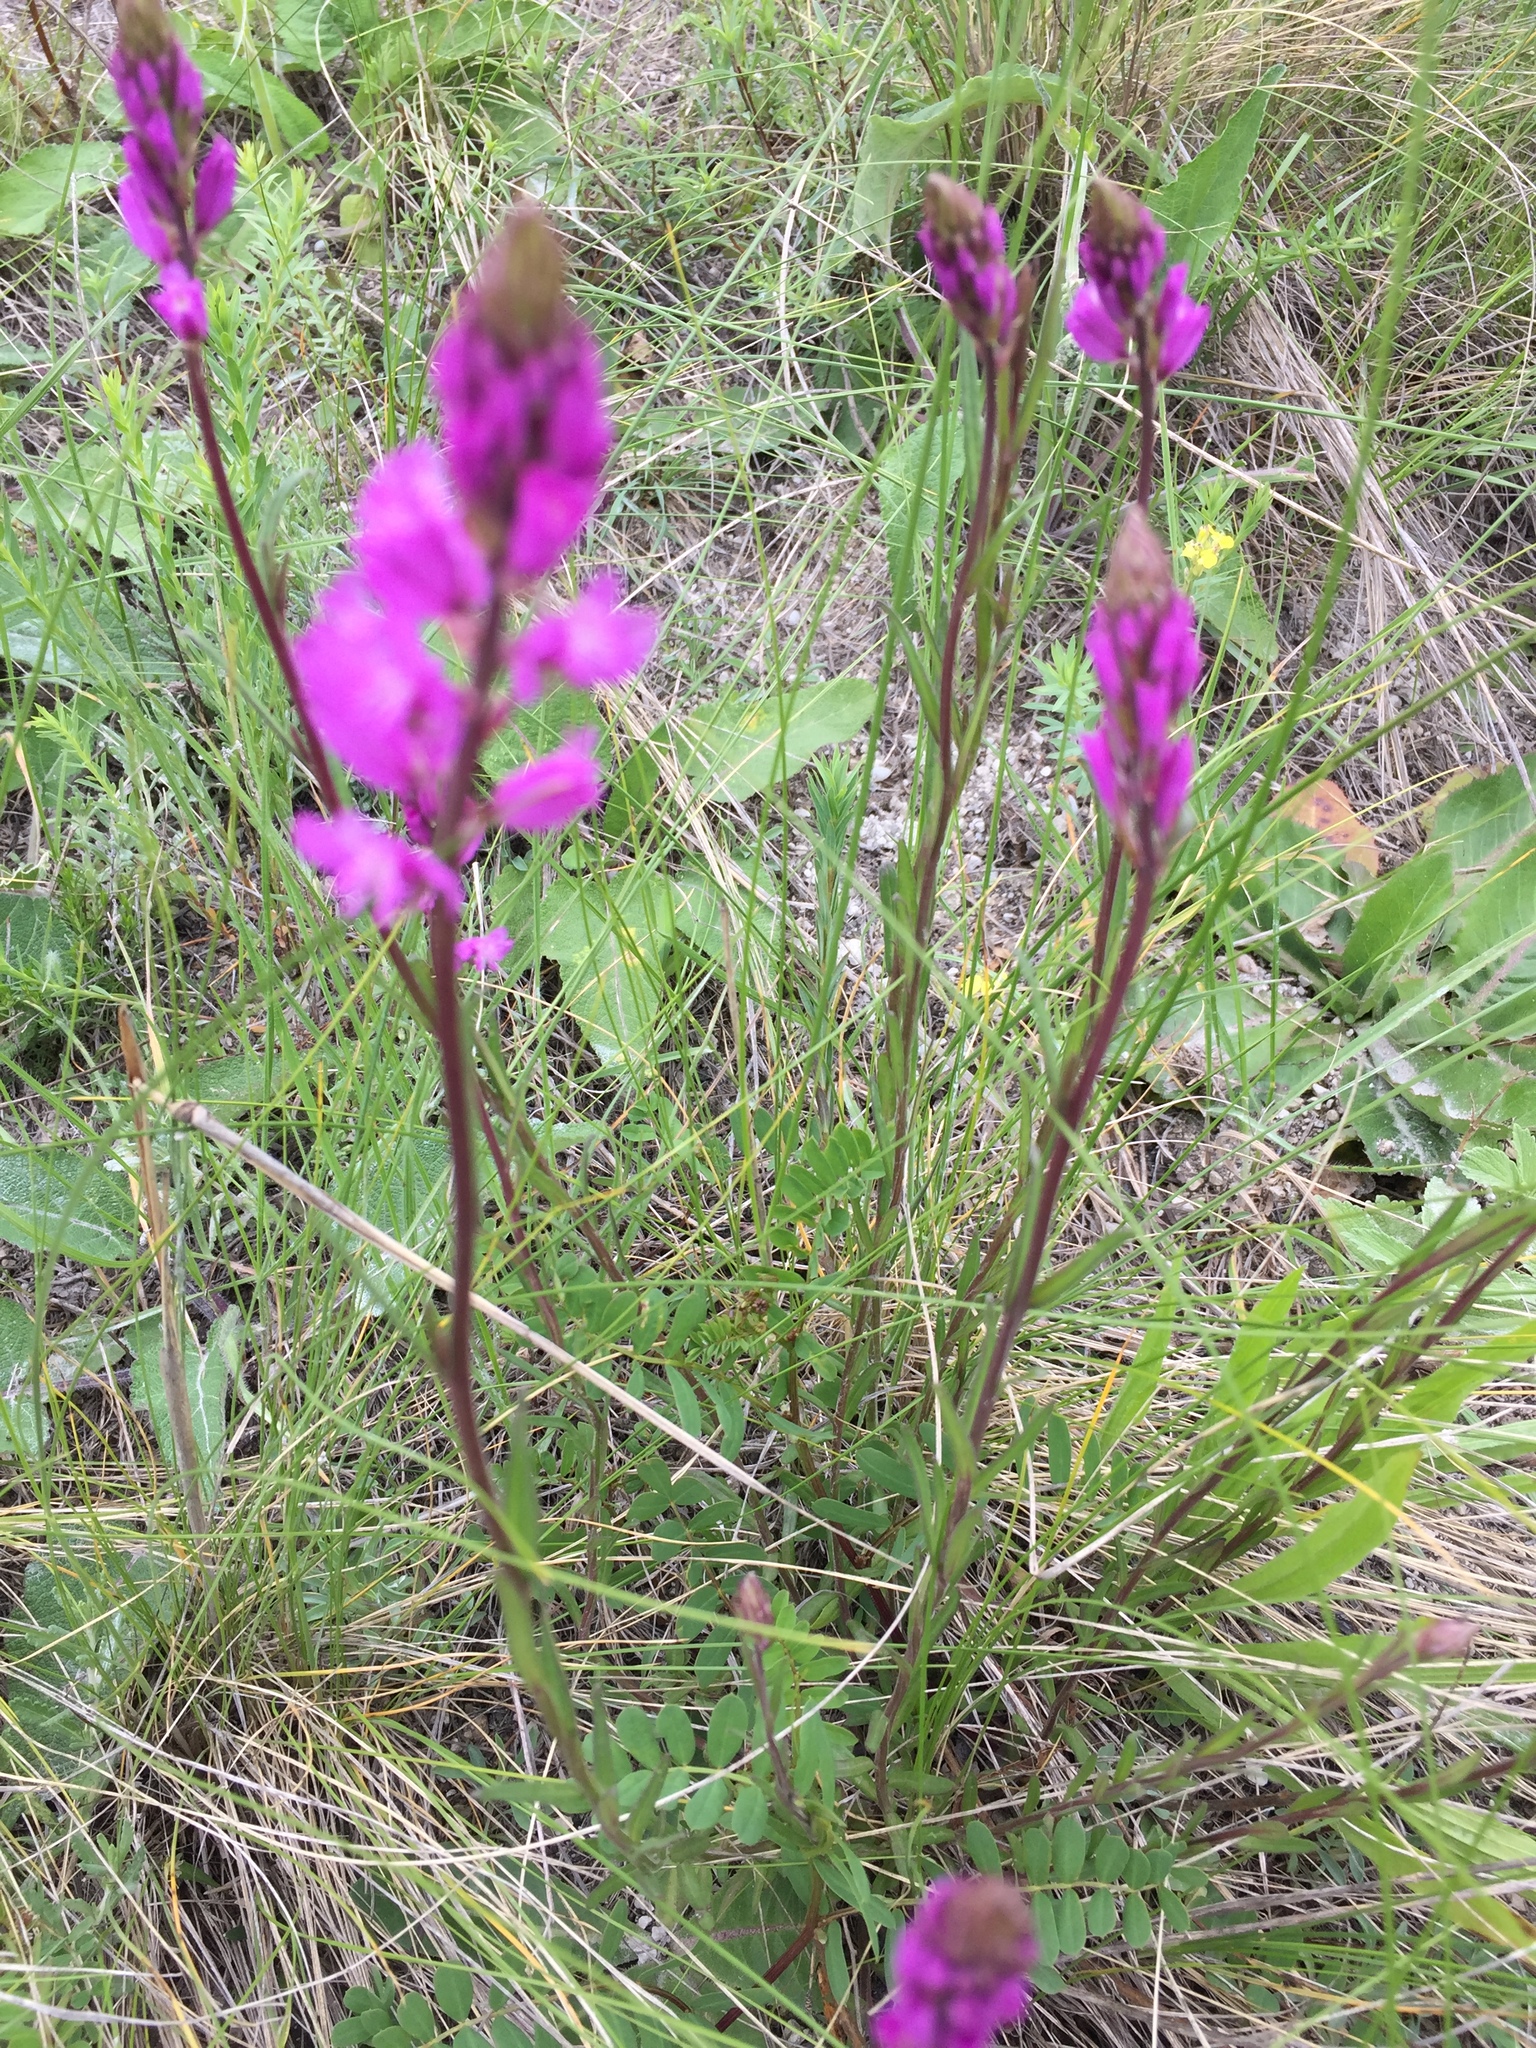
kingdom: Plantae
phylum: Tracheophyta
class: Magnoliopsida
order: Fabales
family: Polygalaceae
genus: Polygala
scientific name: Polygala nicaeensis
